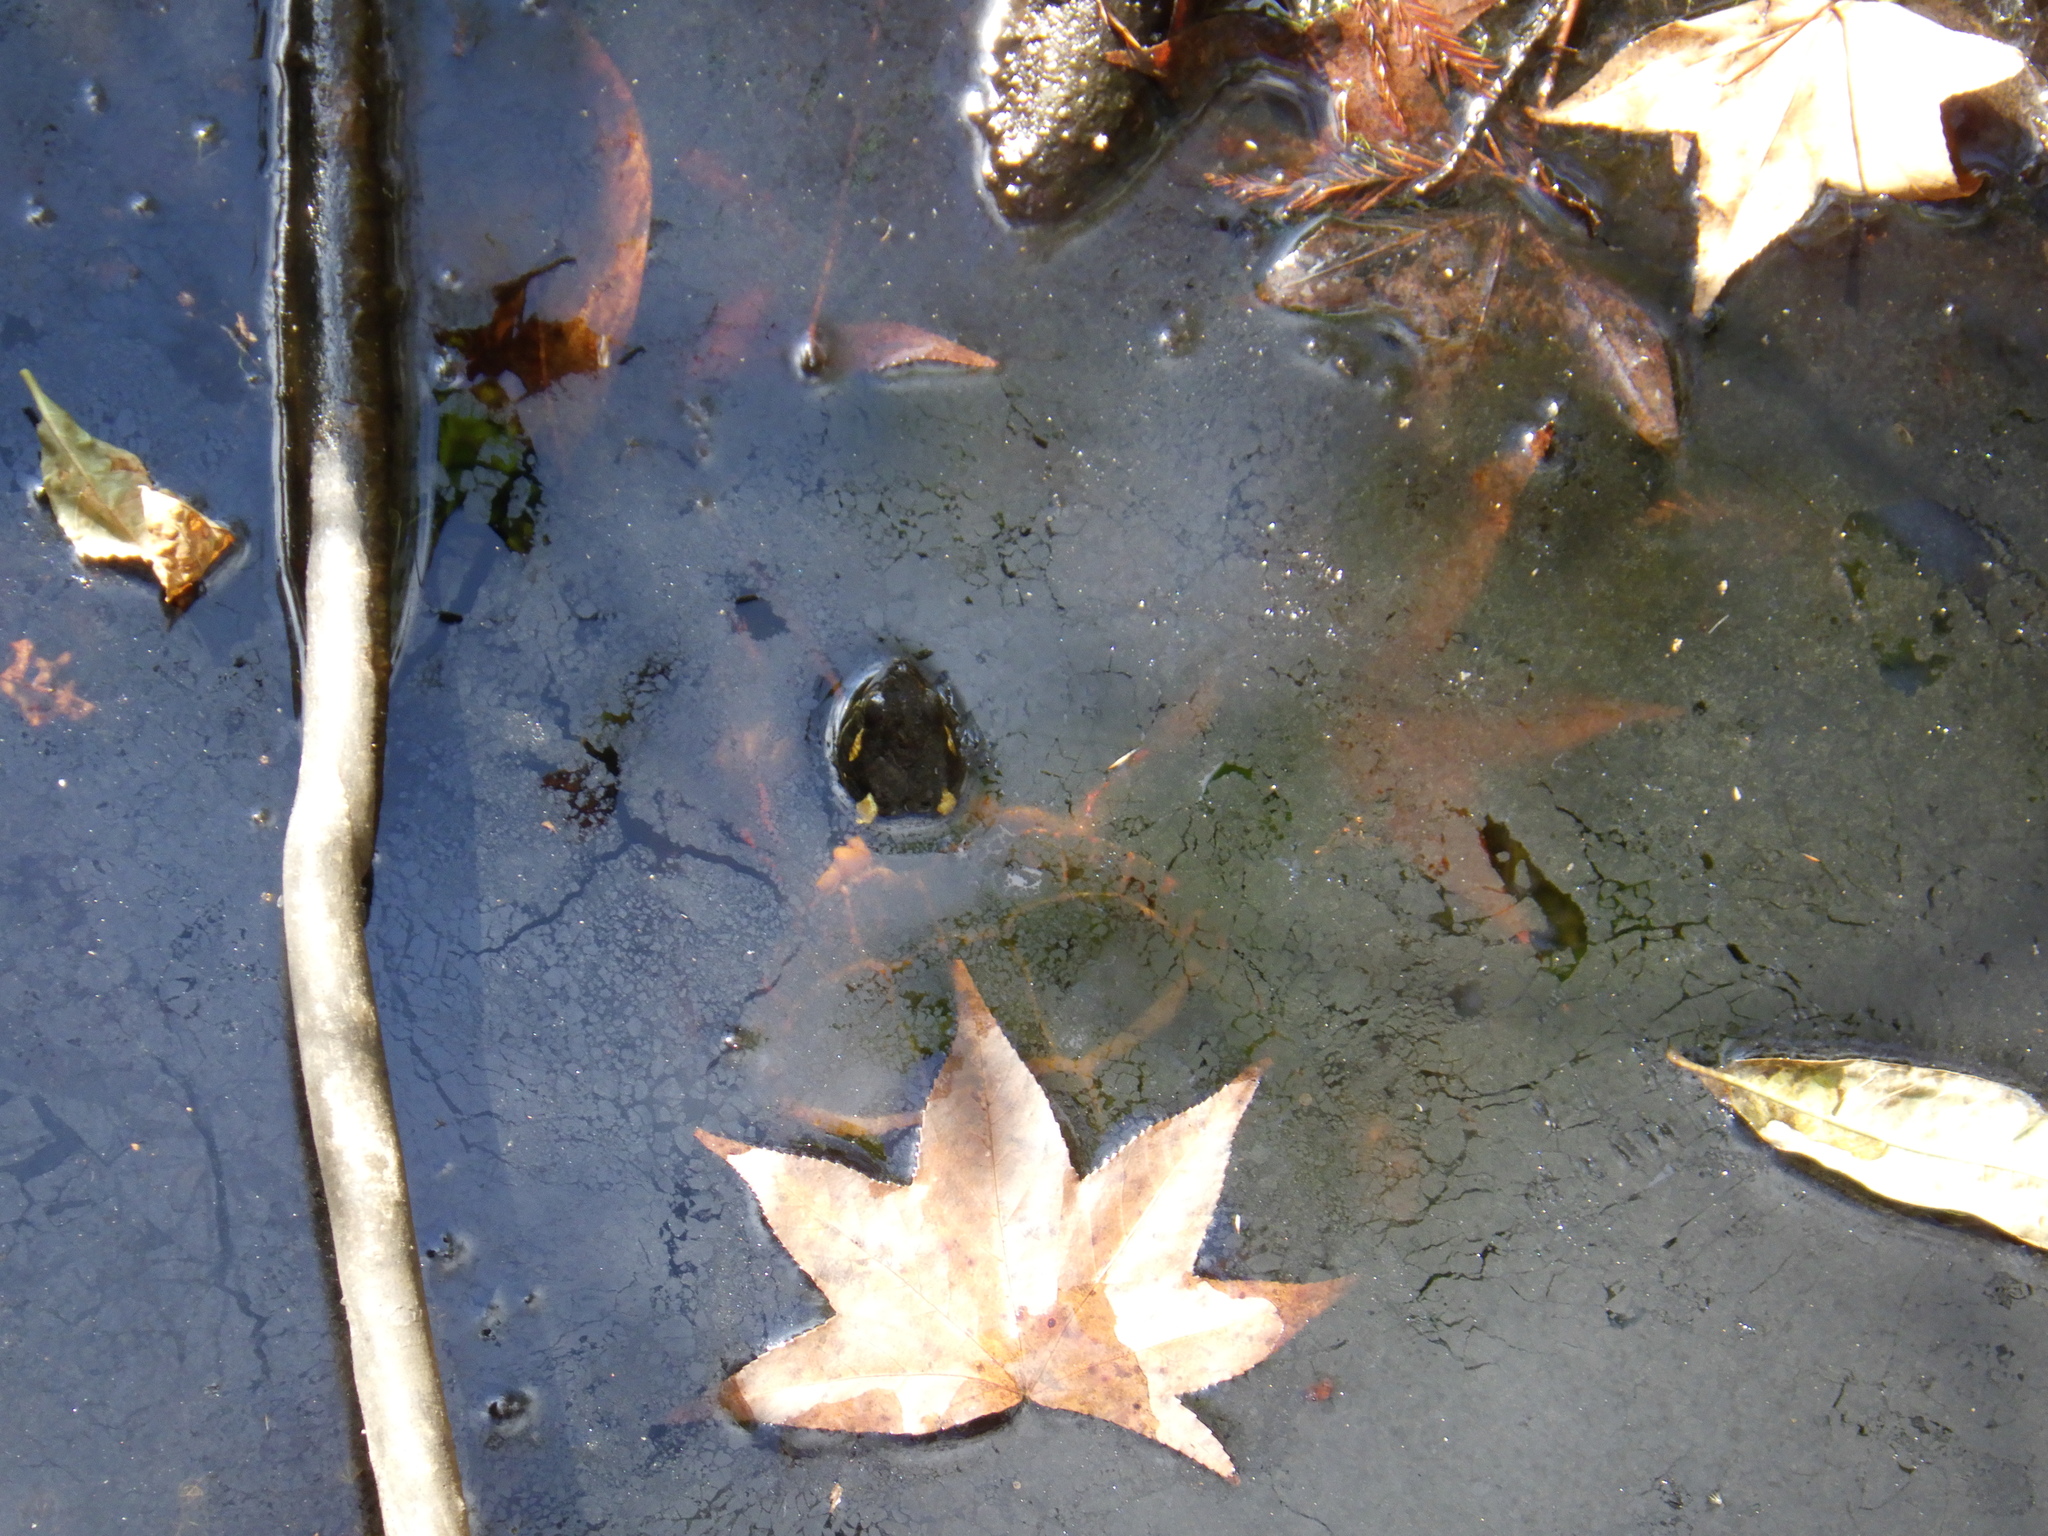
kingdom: Animalia
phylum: Chordata
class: Testudines
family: Emydidae
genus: Chrysemys
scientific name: Chrysemys picta
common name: Painted turtle
